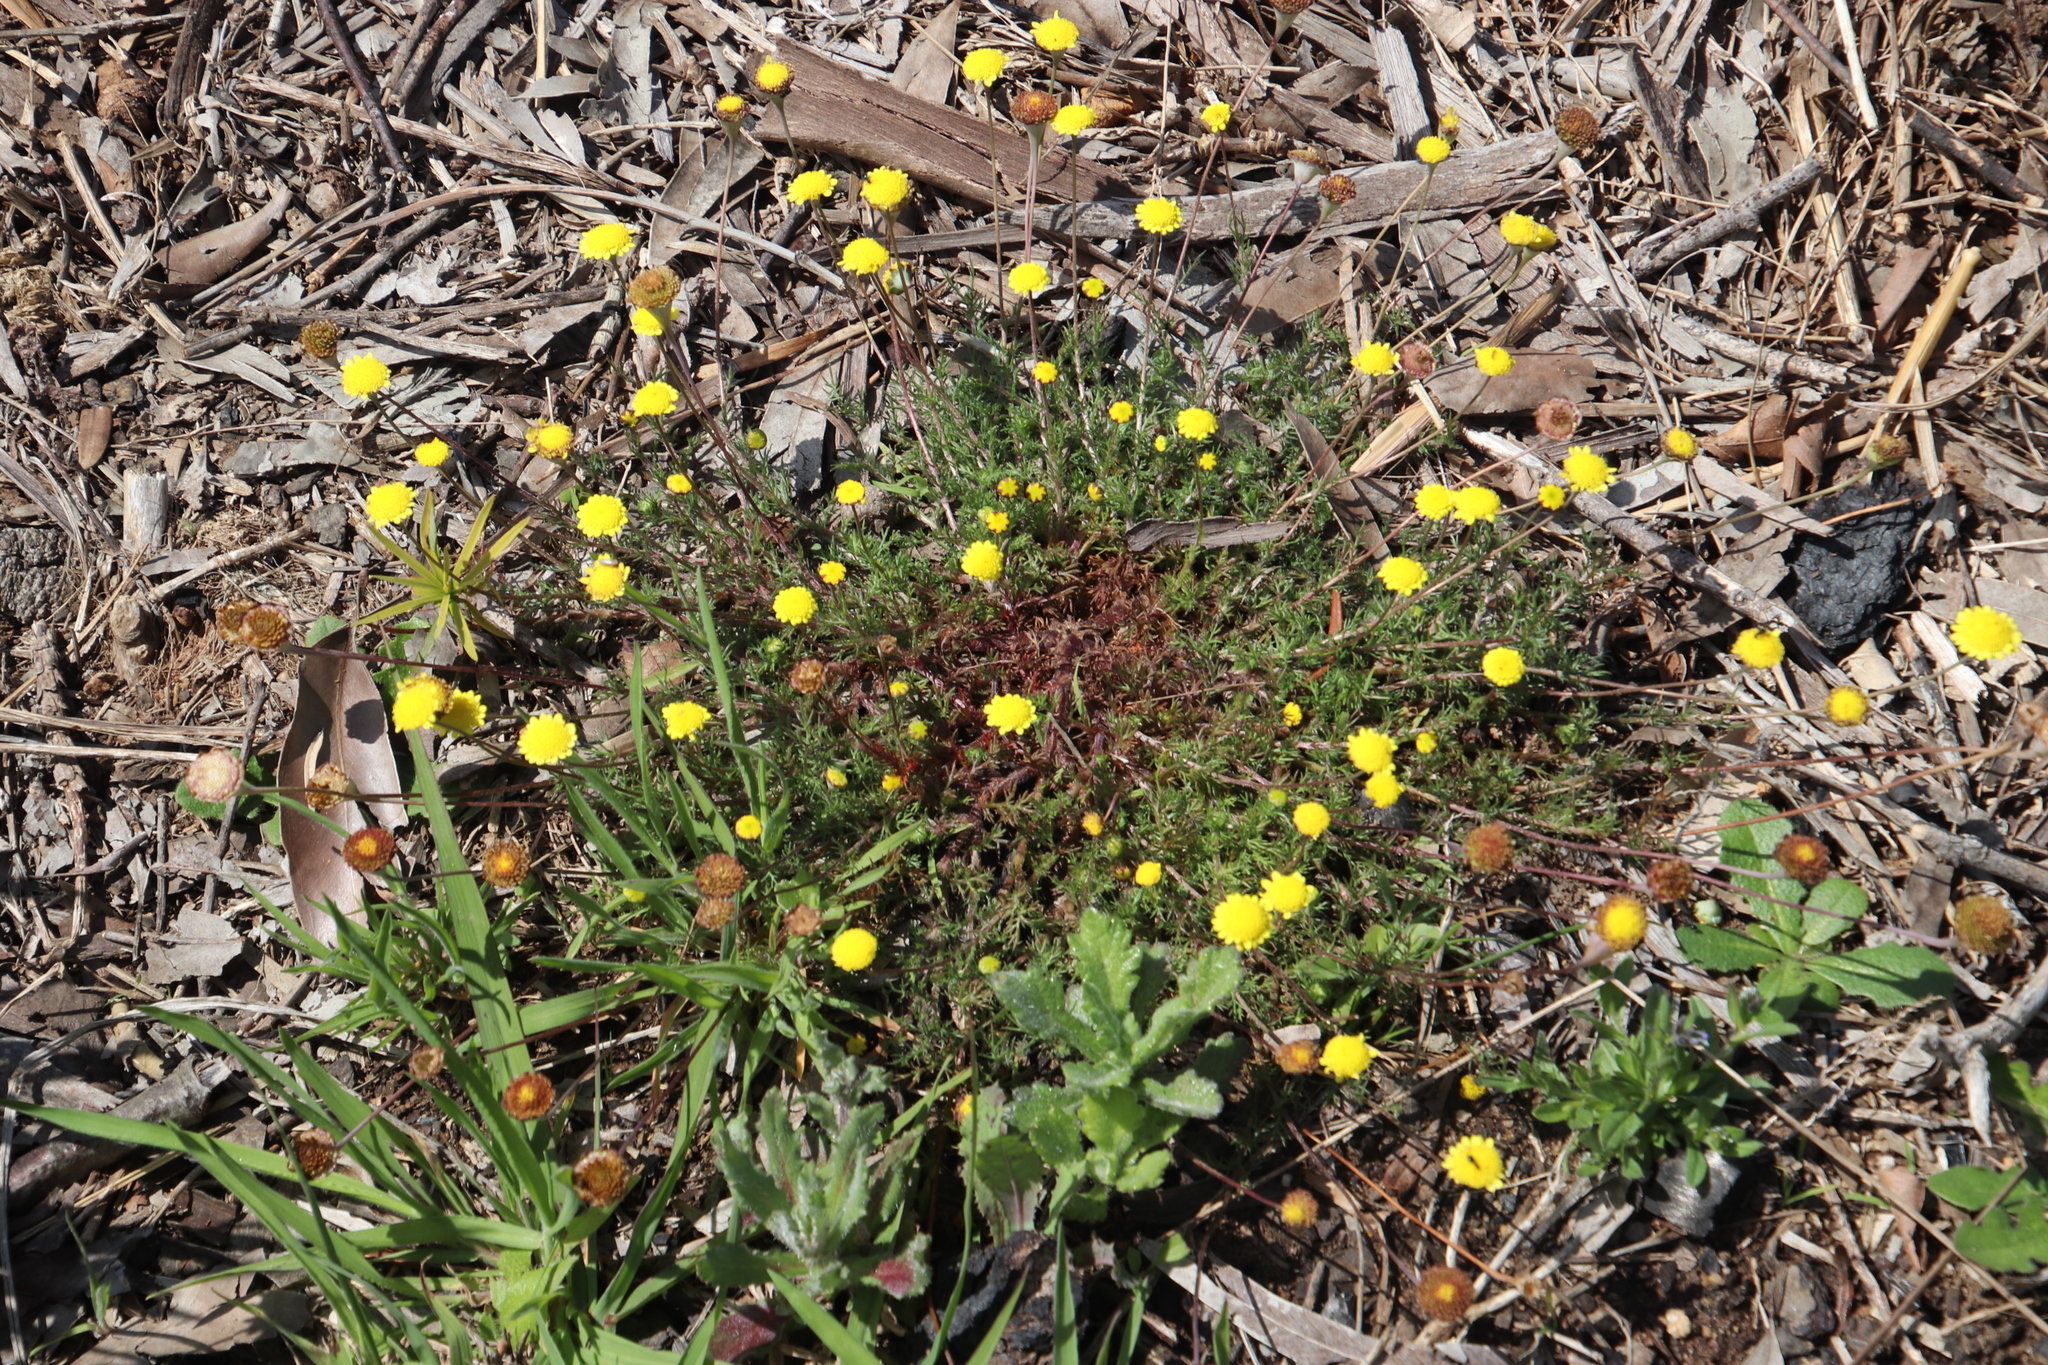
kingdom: Plantae
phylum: Tracheophyta
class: Magnoliopsida
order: Asterales
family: Asteraceae
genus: Cotula
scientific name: Cotula pruinosa
